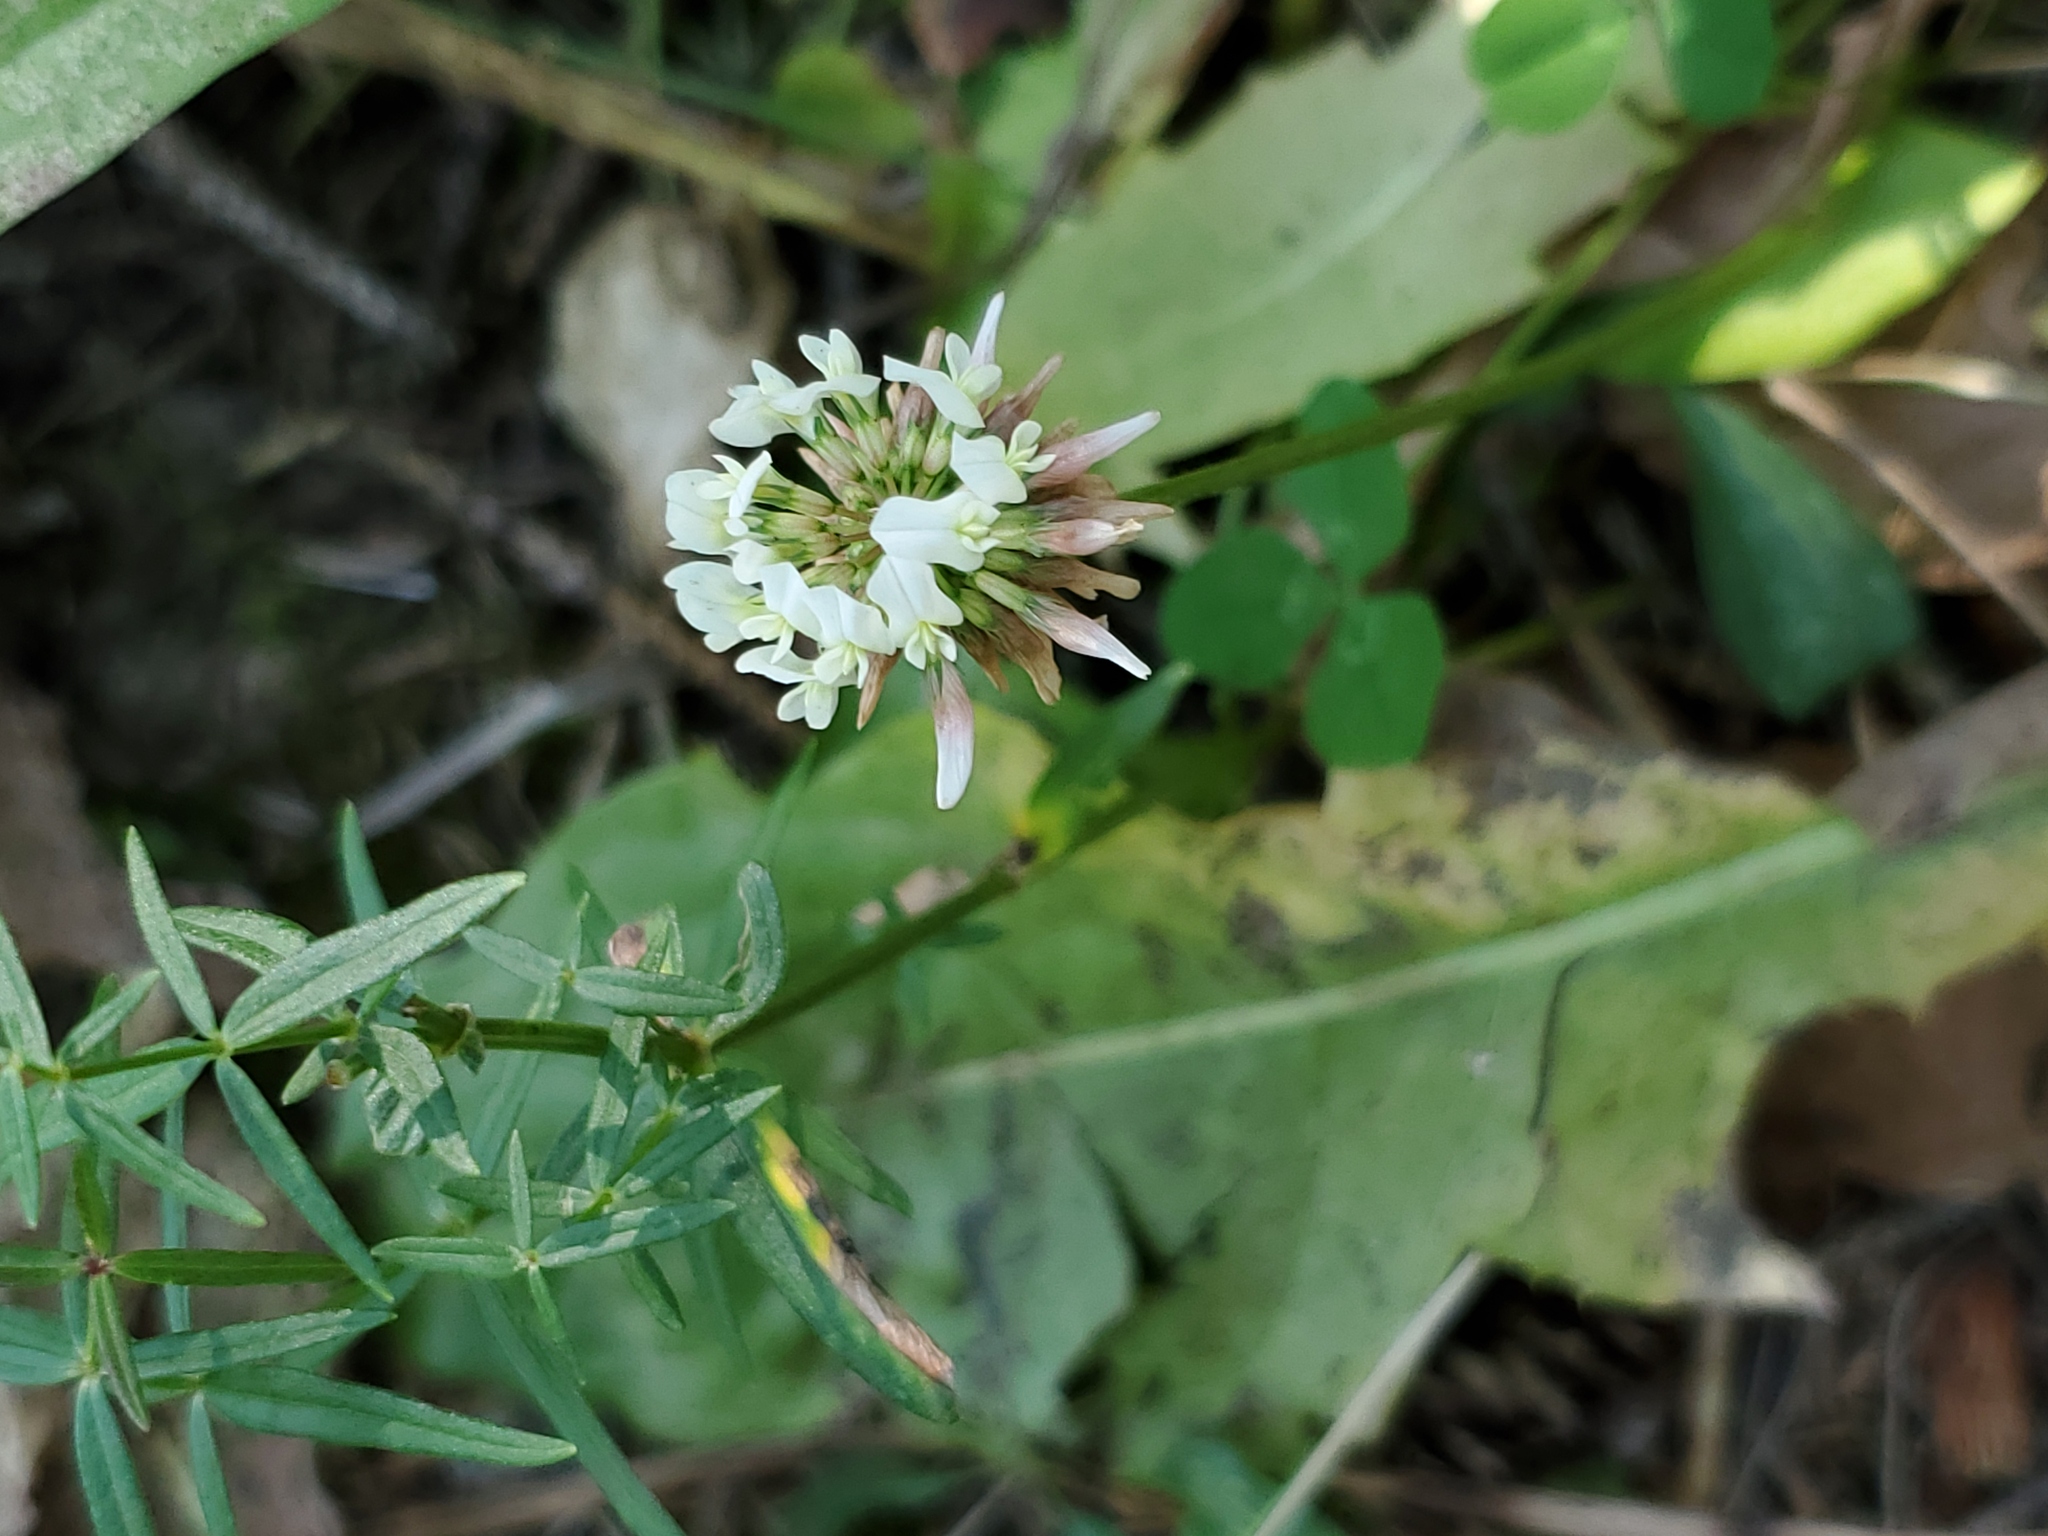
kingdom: Plantae
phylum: Tracheophyta
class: Magnoliopsida
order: Fabales
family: Fabaceae
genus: Trifolium
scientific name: Trifolium repens
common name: White clover
